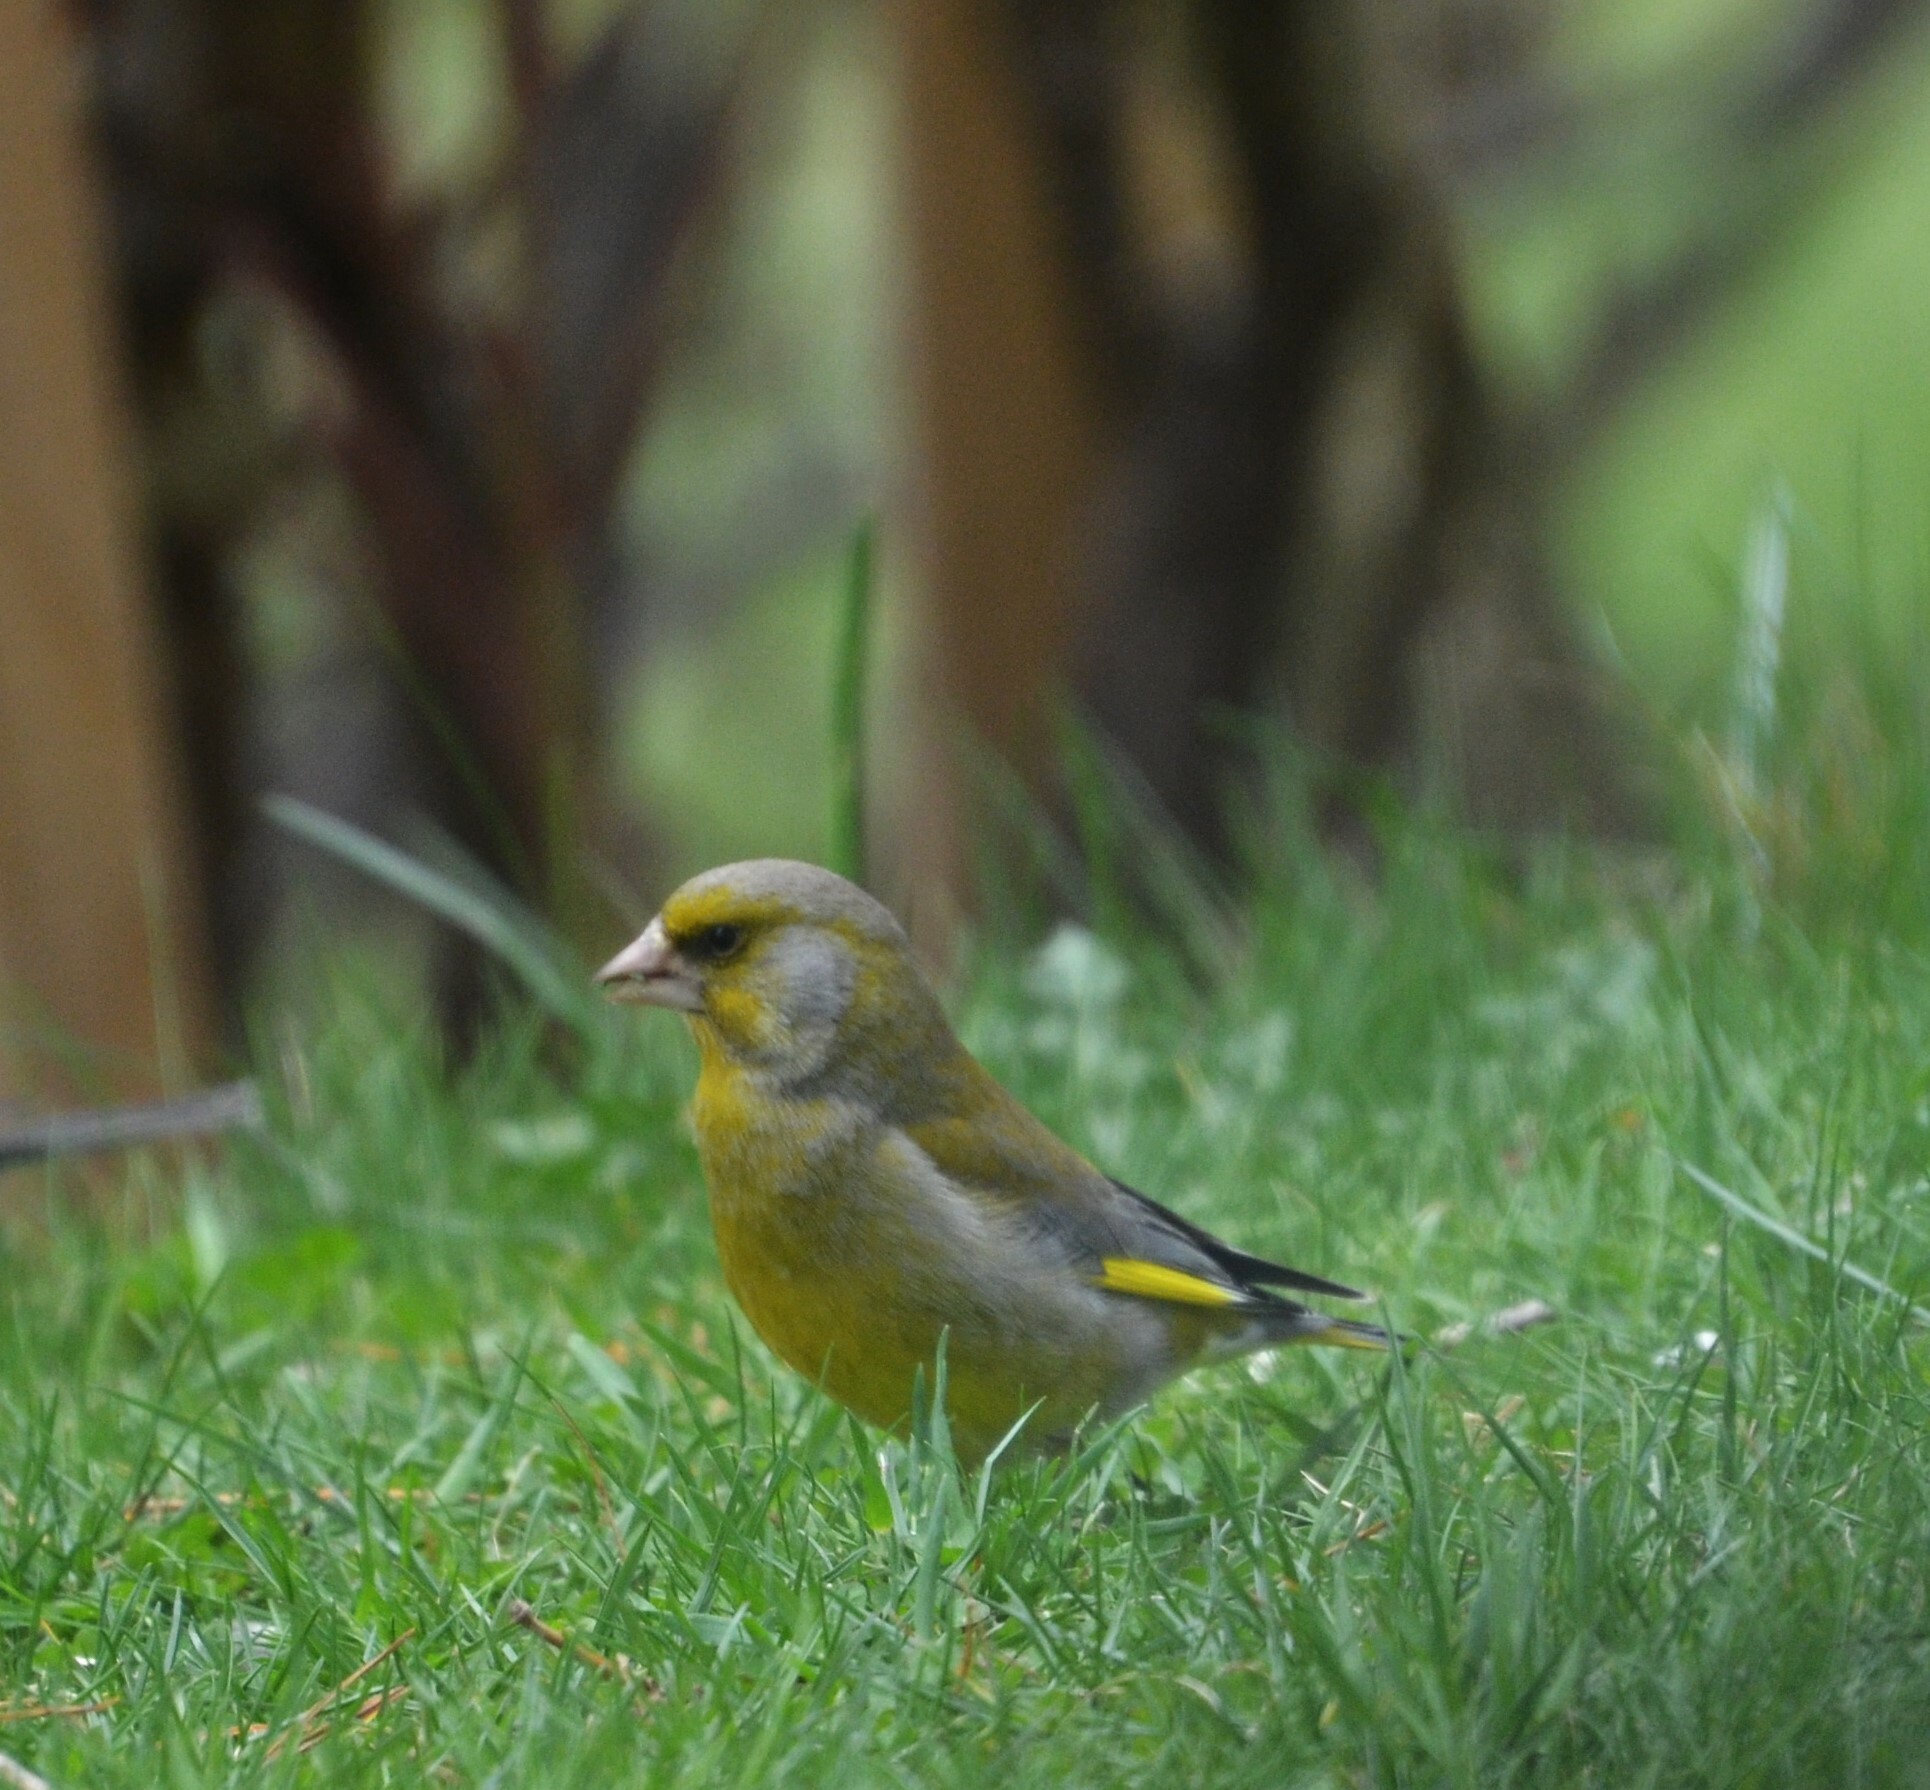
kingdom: Plantae
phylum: Tracheophyta
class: Liliopsida
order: Poales
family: Poaceae
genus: Chloris
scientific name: Chloris chloris
